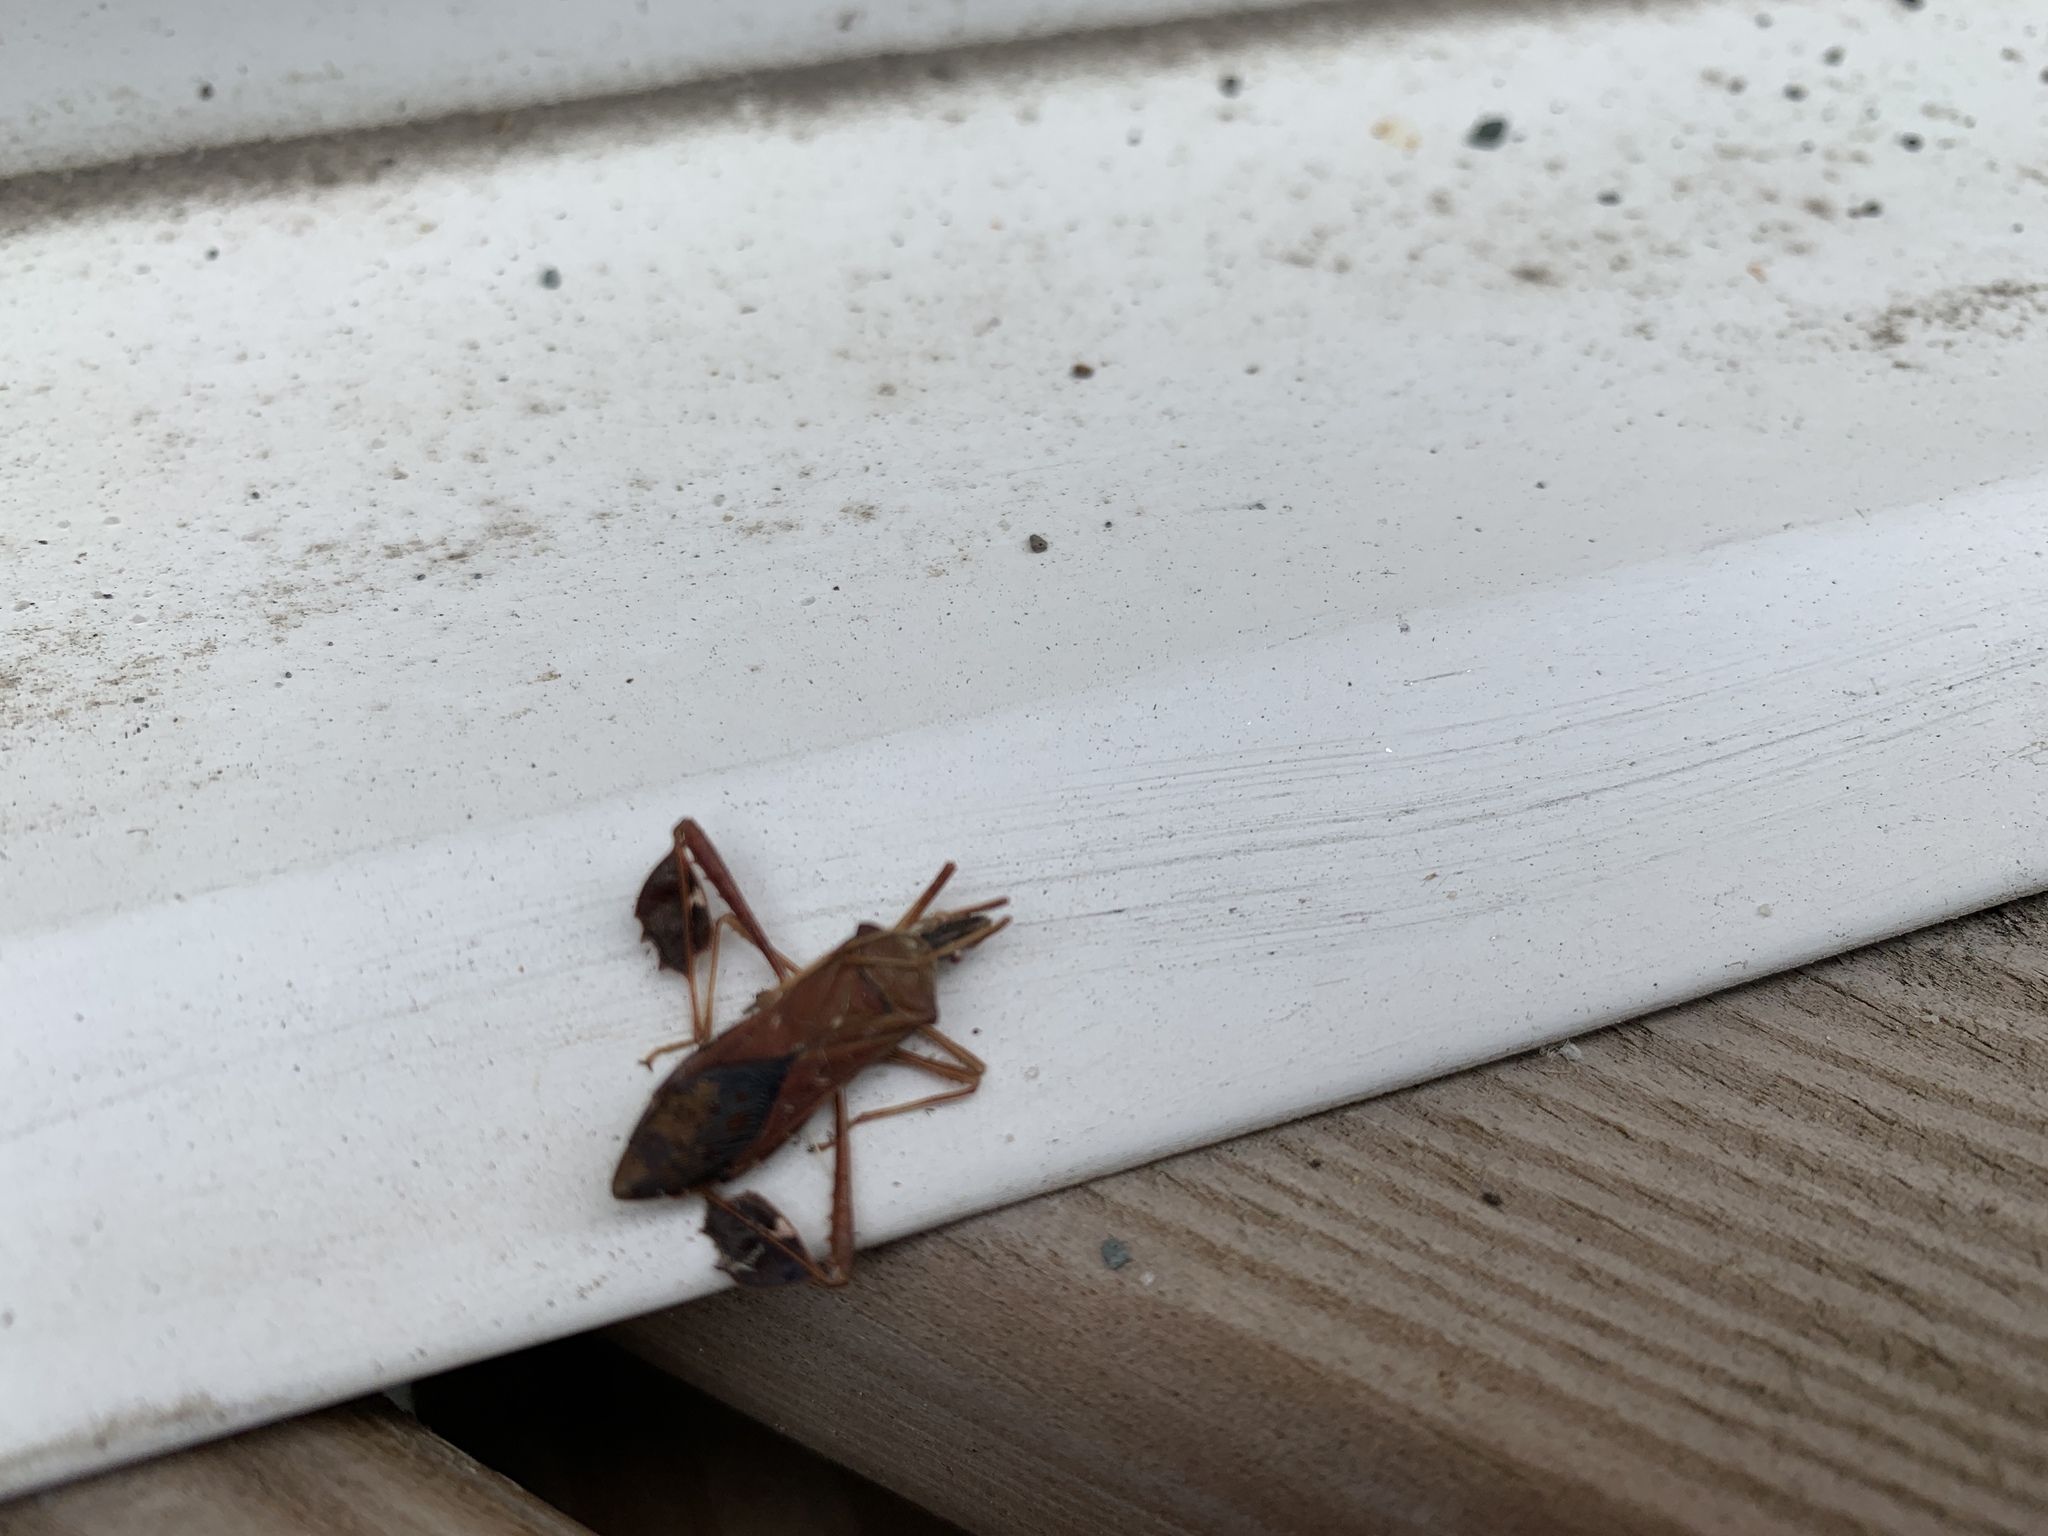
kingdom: Animalia
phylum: Arthropoda
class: Insecta
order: Hemiptera
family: Coreidae
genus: Leptoglossus
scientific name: Leptoglossus oppositus
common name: Northern leaf-footed bug
